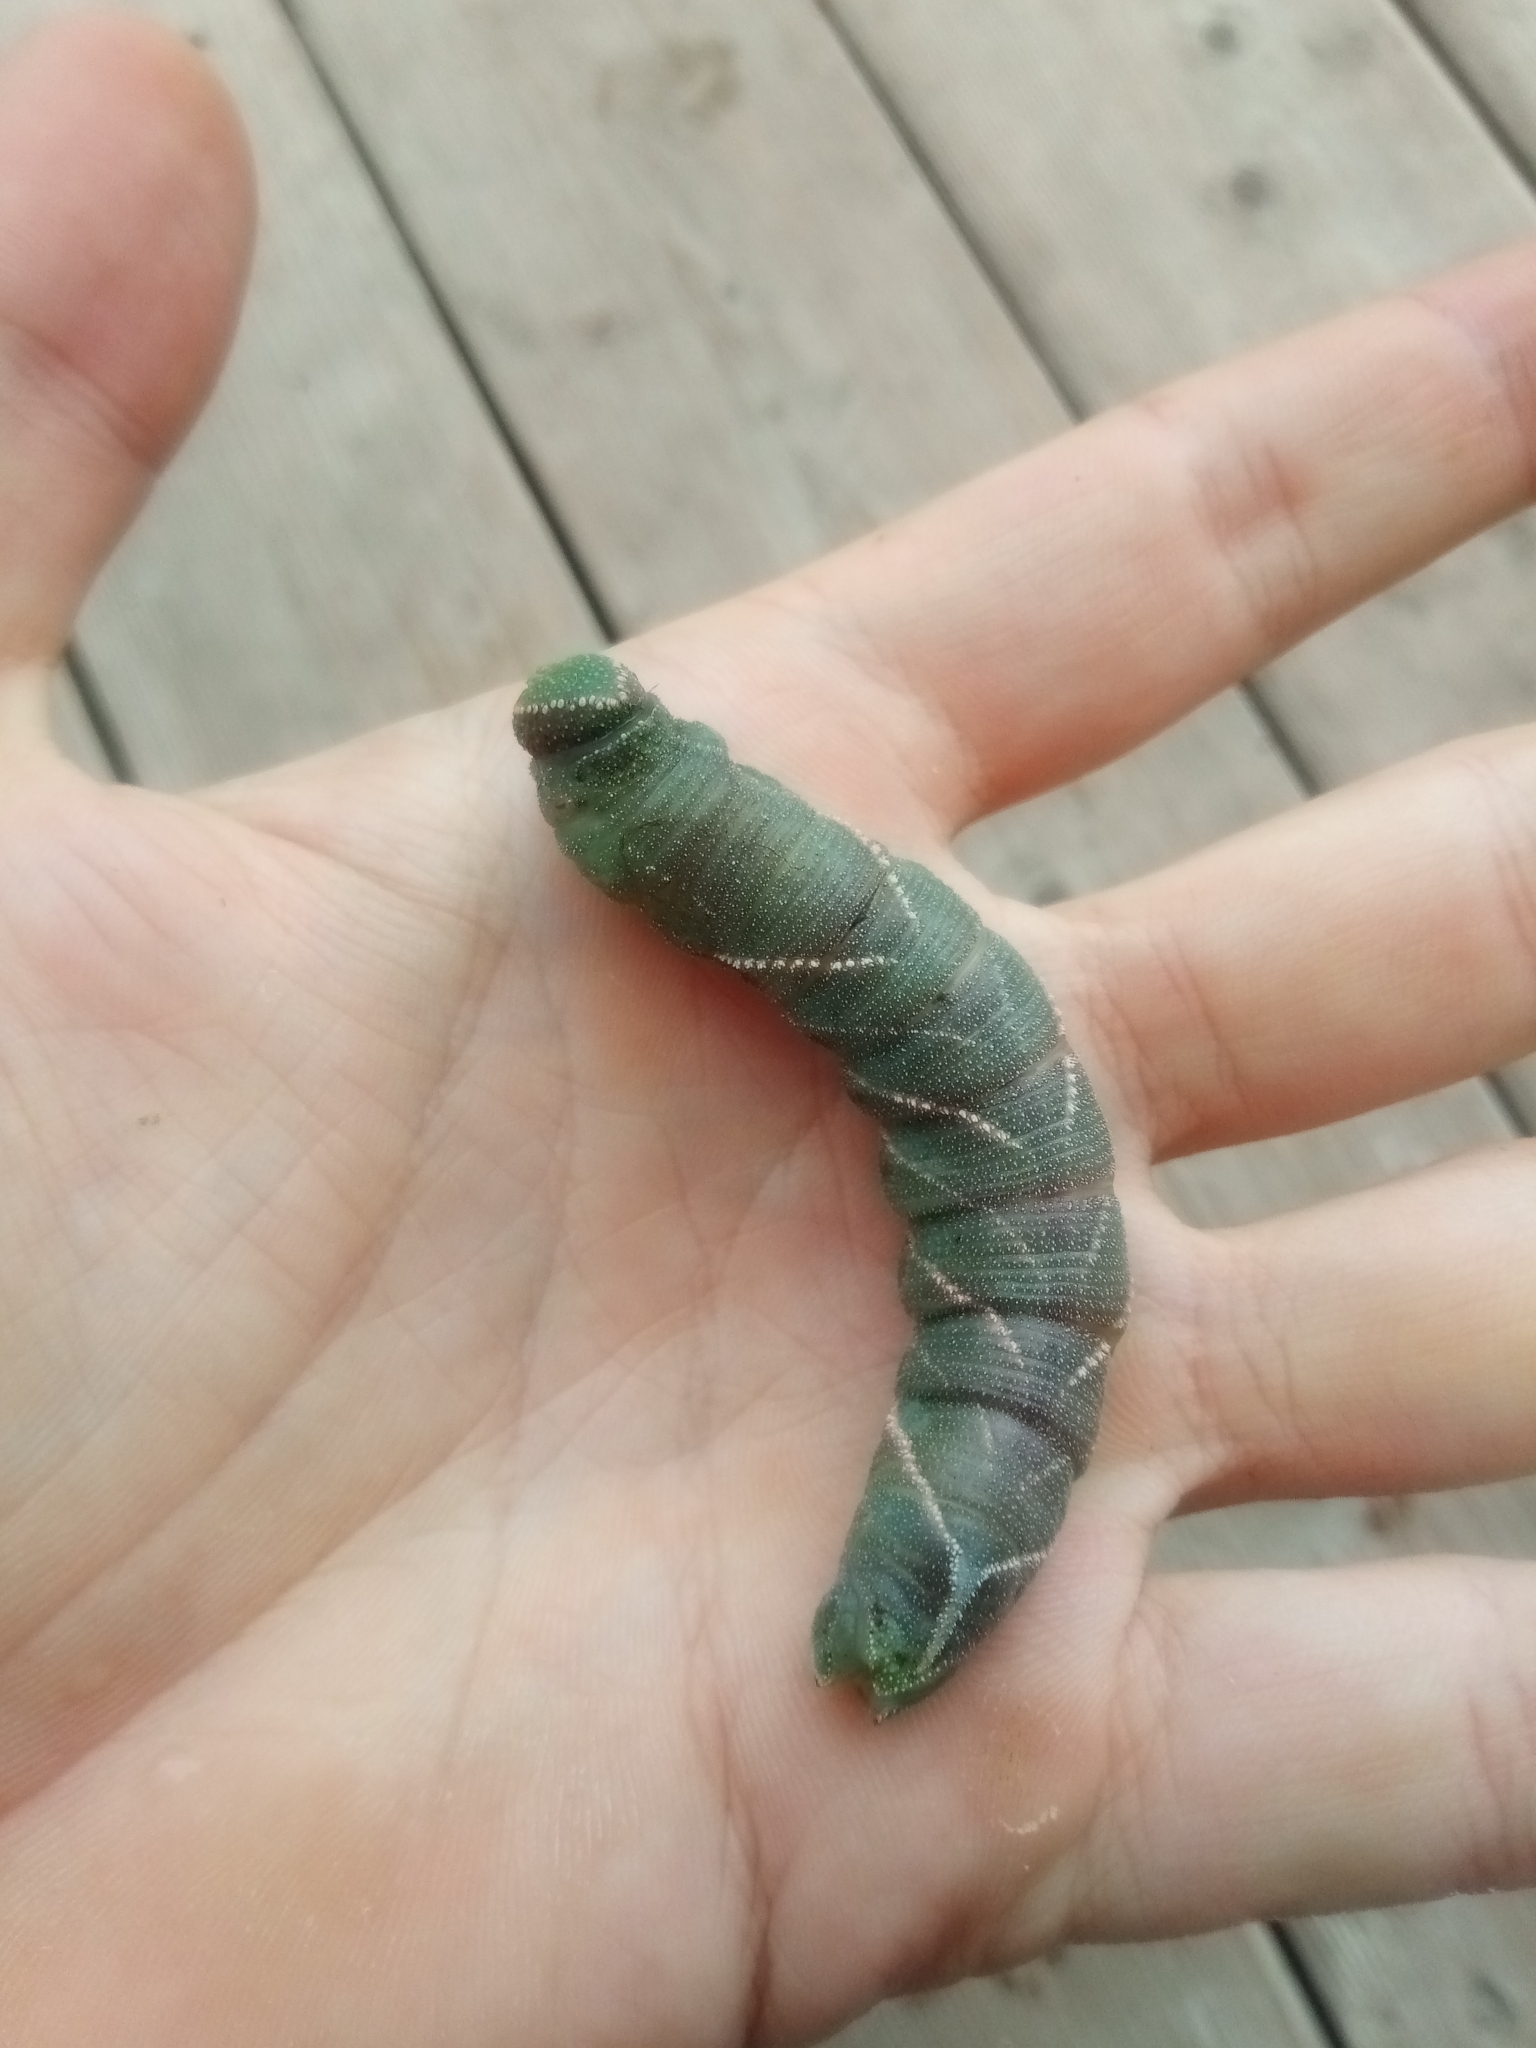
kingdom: Animalia
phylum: Arthropoda
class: Insecta
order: Lepidoptera
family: Sphingidae
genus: Marumba
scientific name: Marumba quercus
